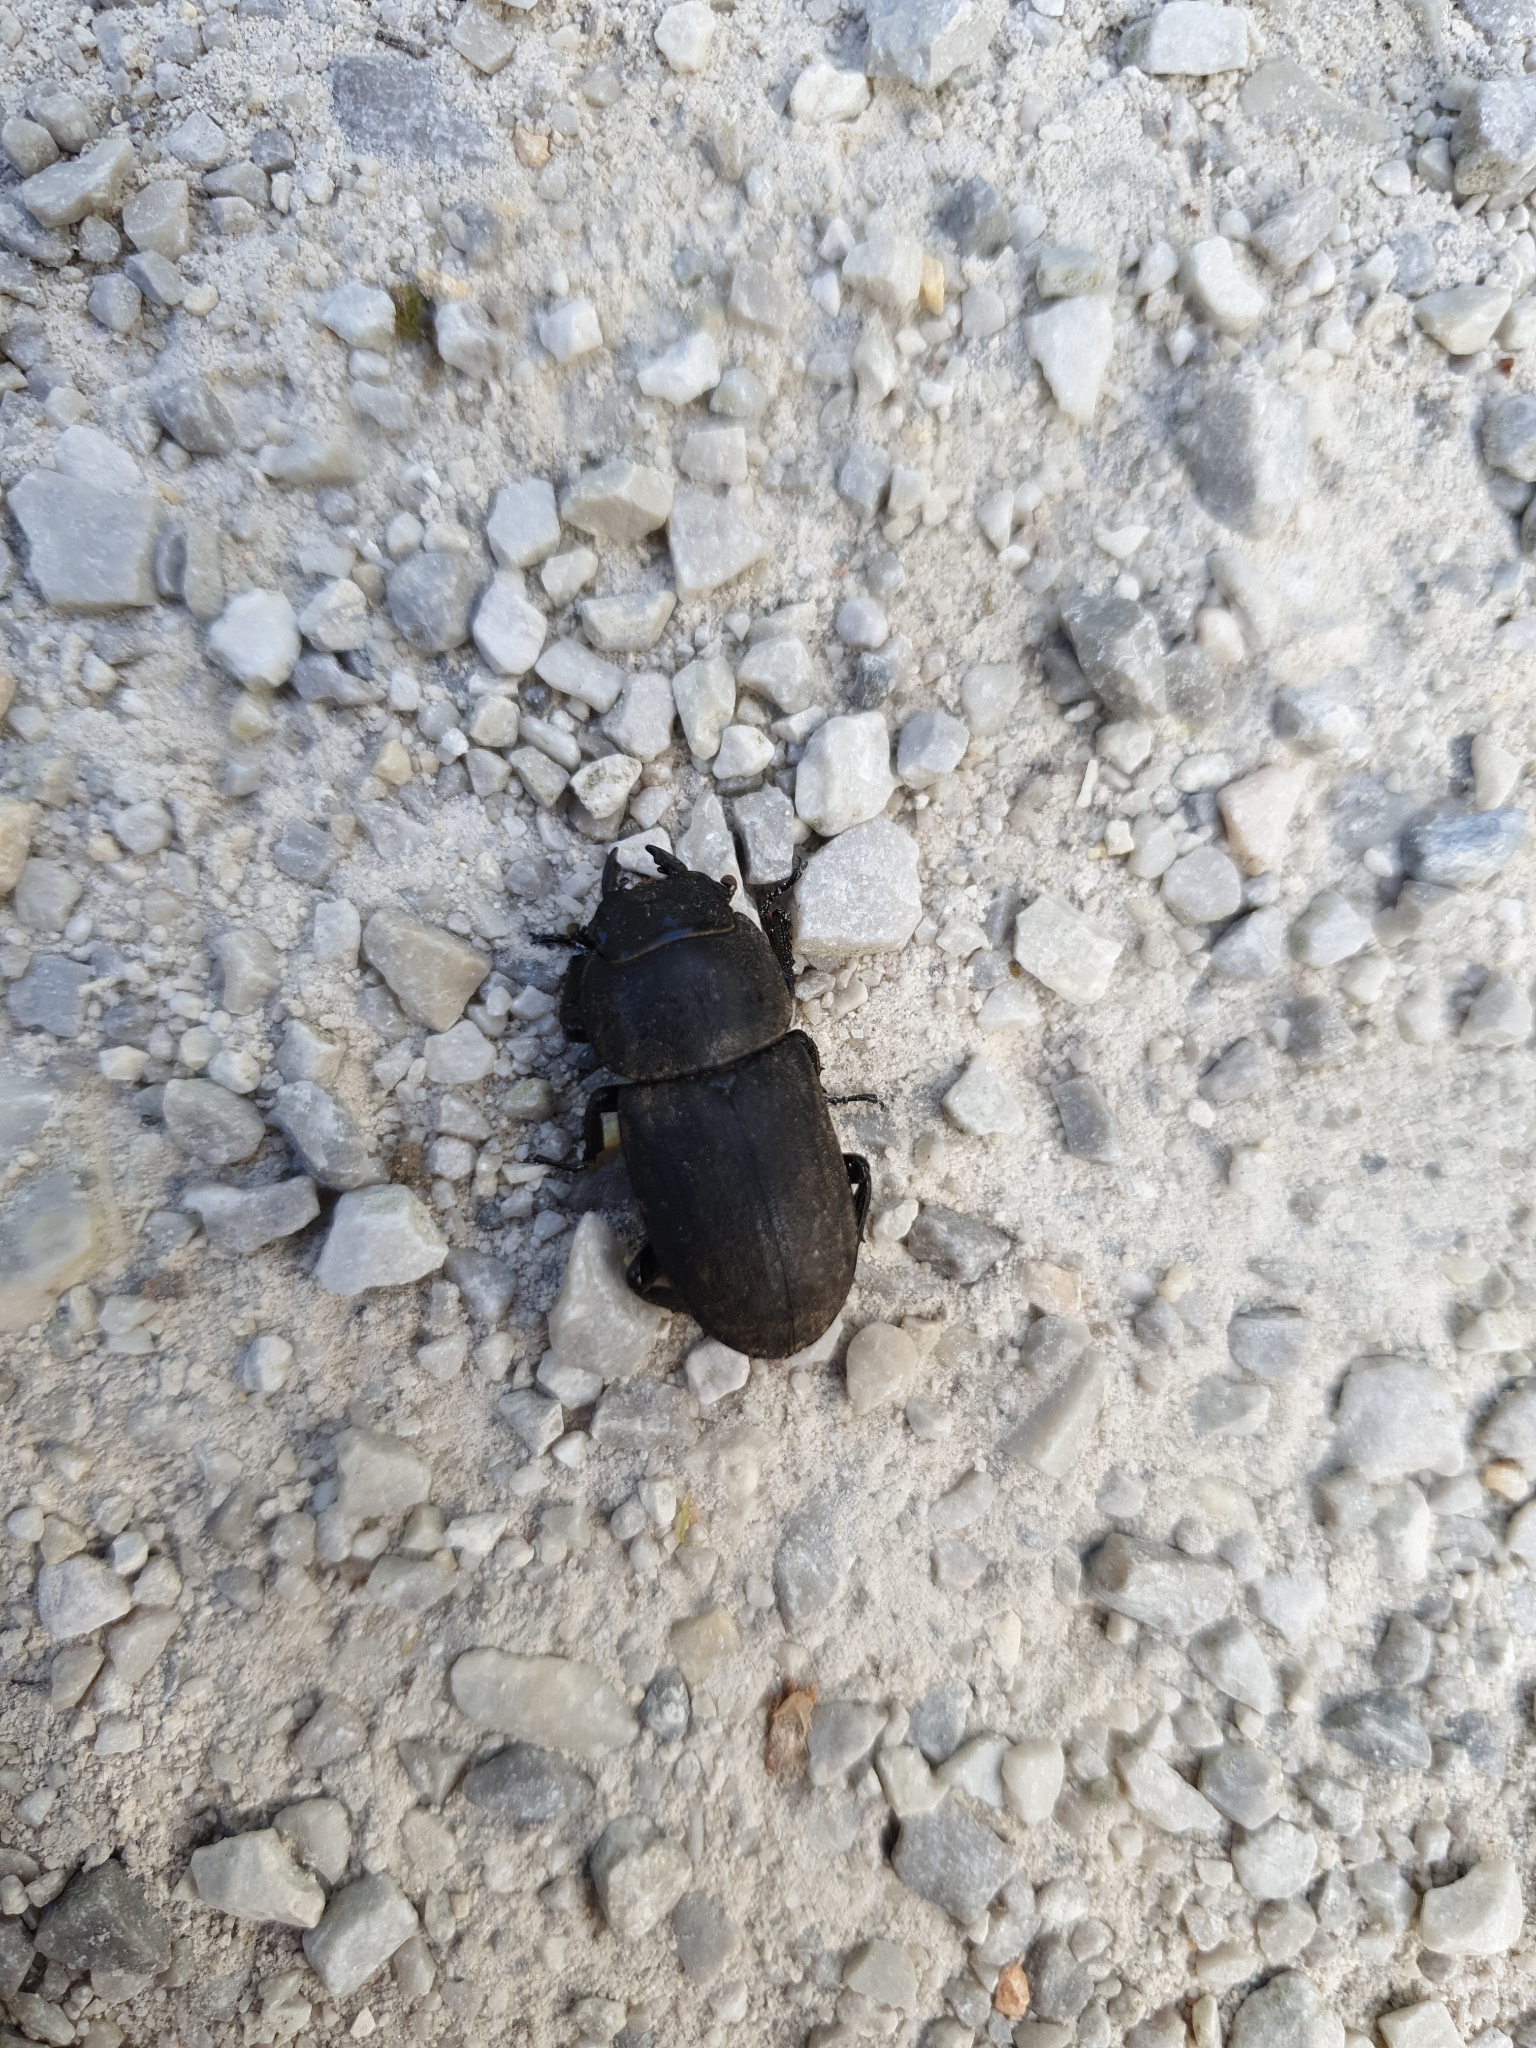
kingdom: Animalia
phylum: Arthropoda
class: Insecta
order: Coleoptera
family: Lucanidae
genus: Dorcus
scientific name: Dorcus parallelipipedus
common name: Lesser stag beetle
